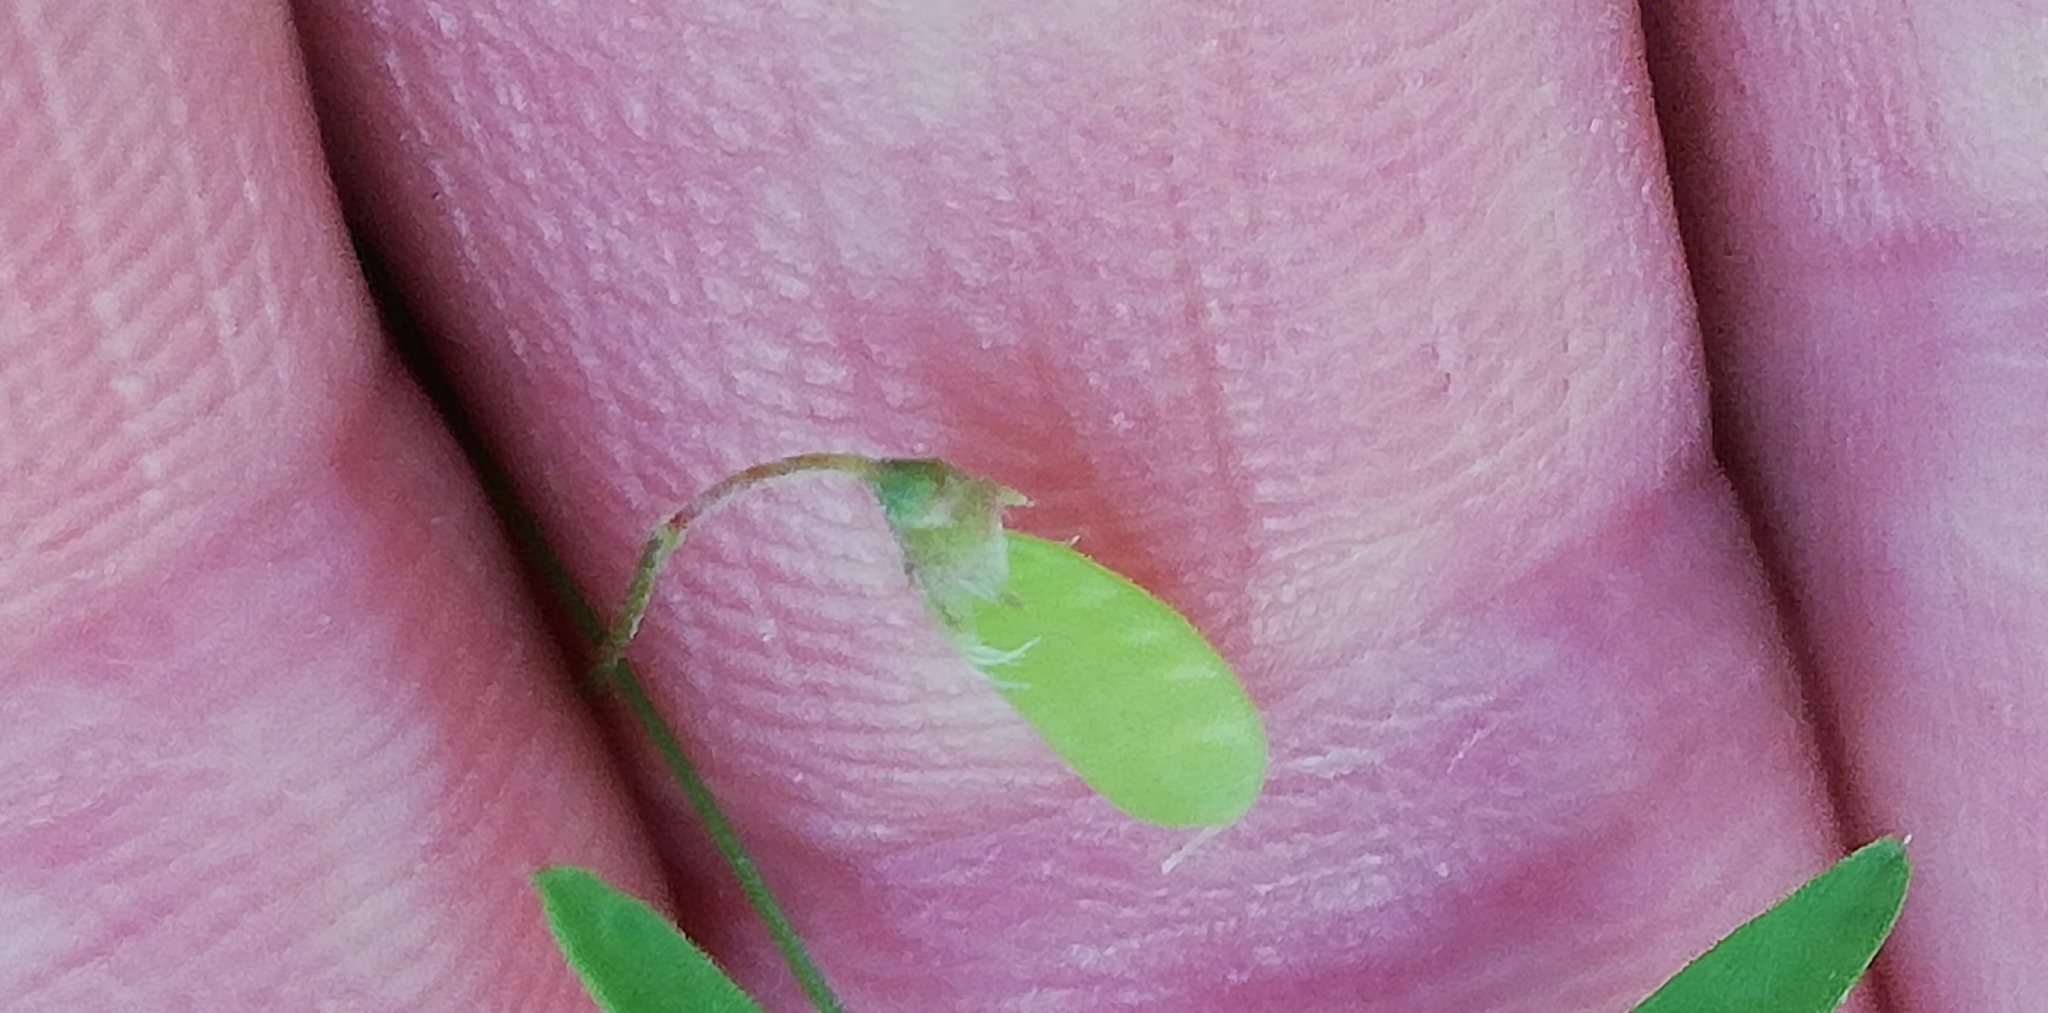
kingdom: Plantae
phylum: Tracheophyta
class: Magnoliopsida
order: Fabales
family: Fabaceae
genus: Vicia
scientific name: Vicia tetrasperma
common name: Smooth tare
